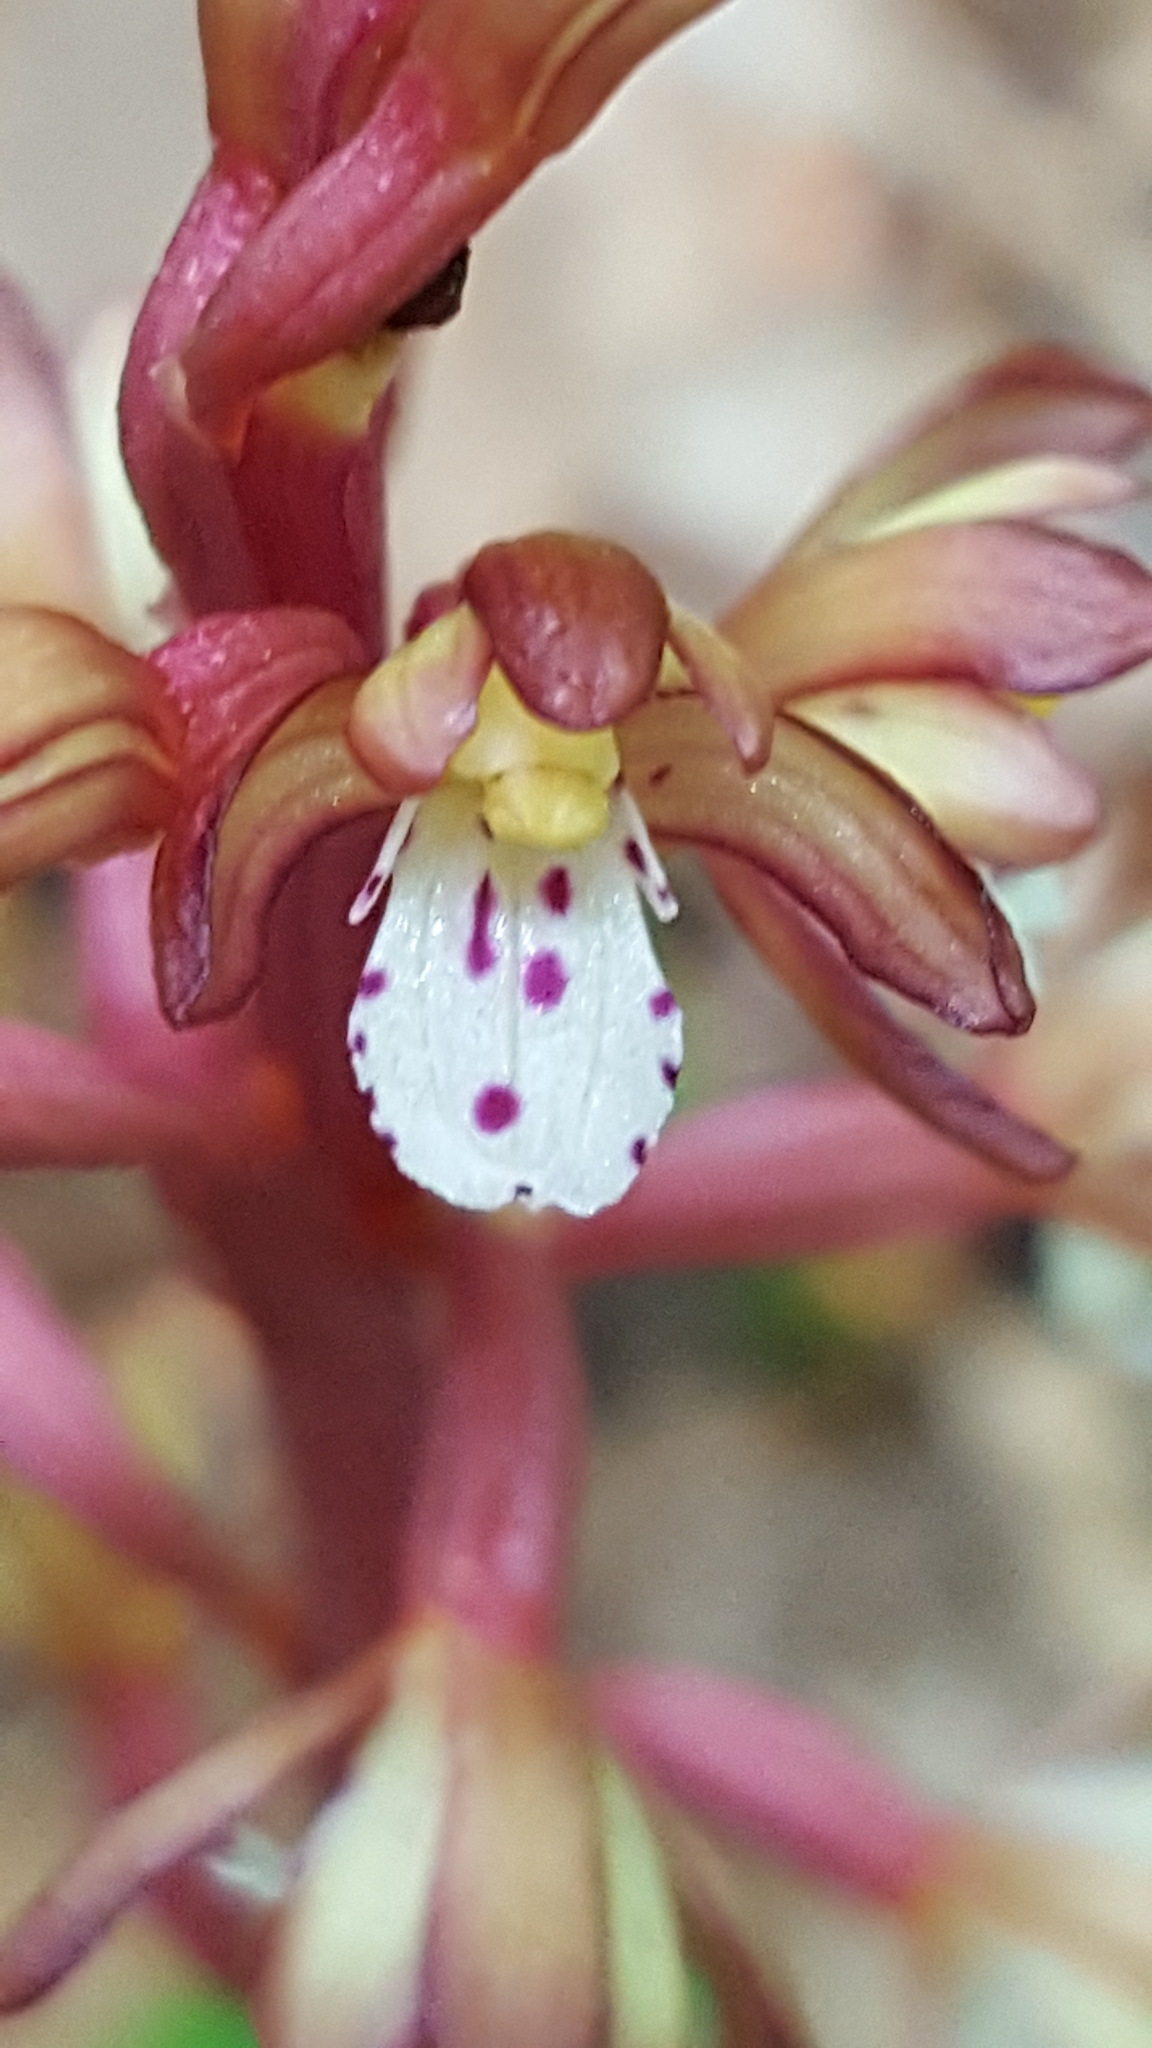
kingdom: Plantae
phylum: Tracheophyta
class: Liliopsida
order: Asparagales
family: Orchidaceae
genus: Corallorhiza
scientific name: Corallorhiza maculata
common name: Spotted coralroot
